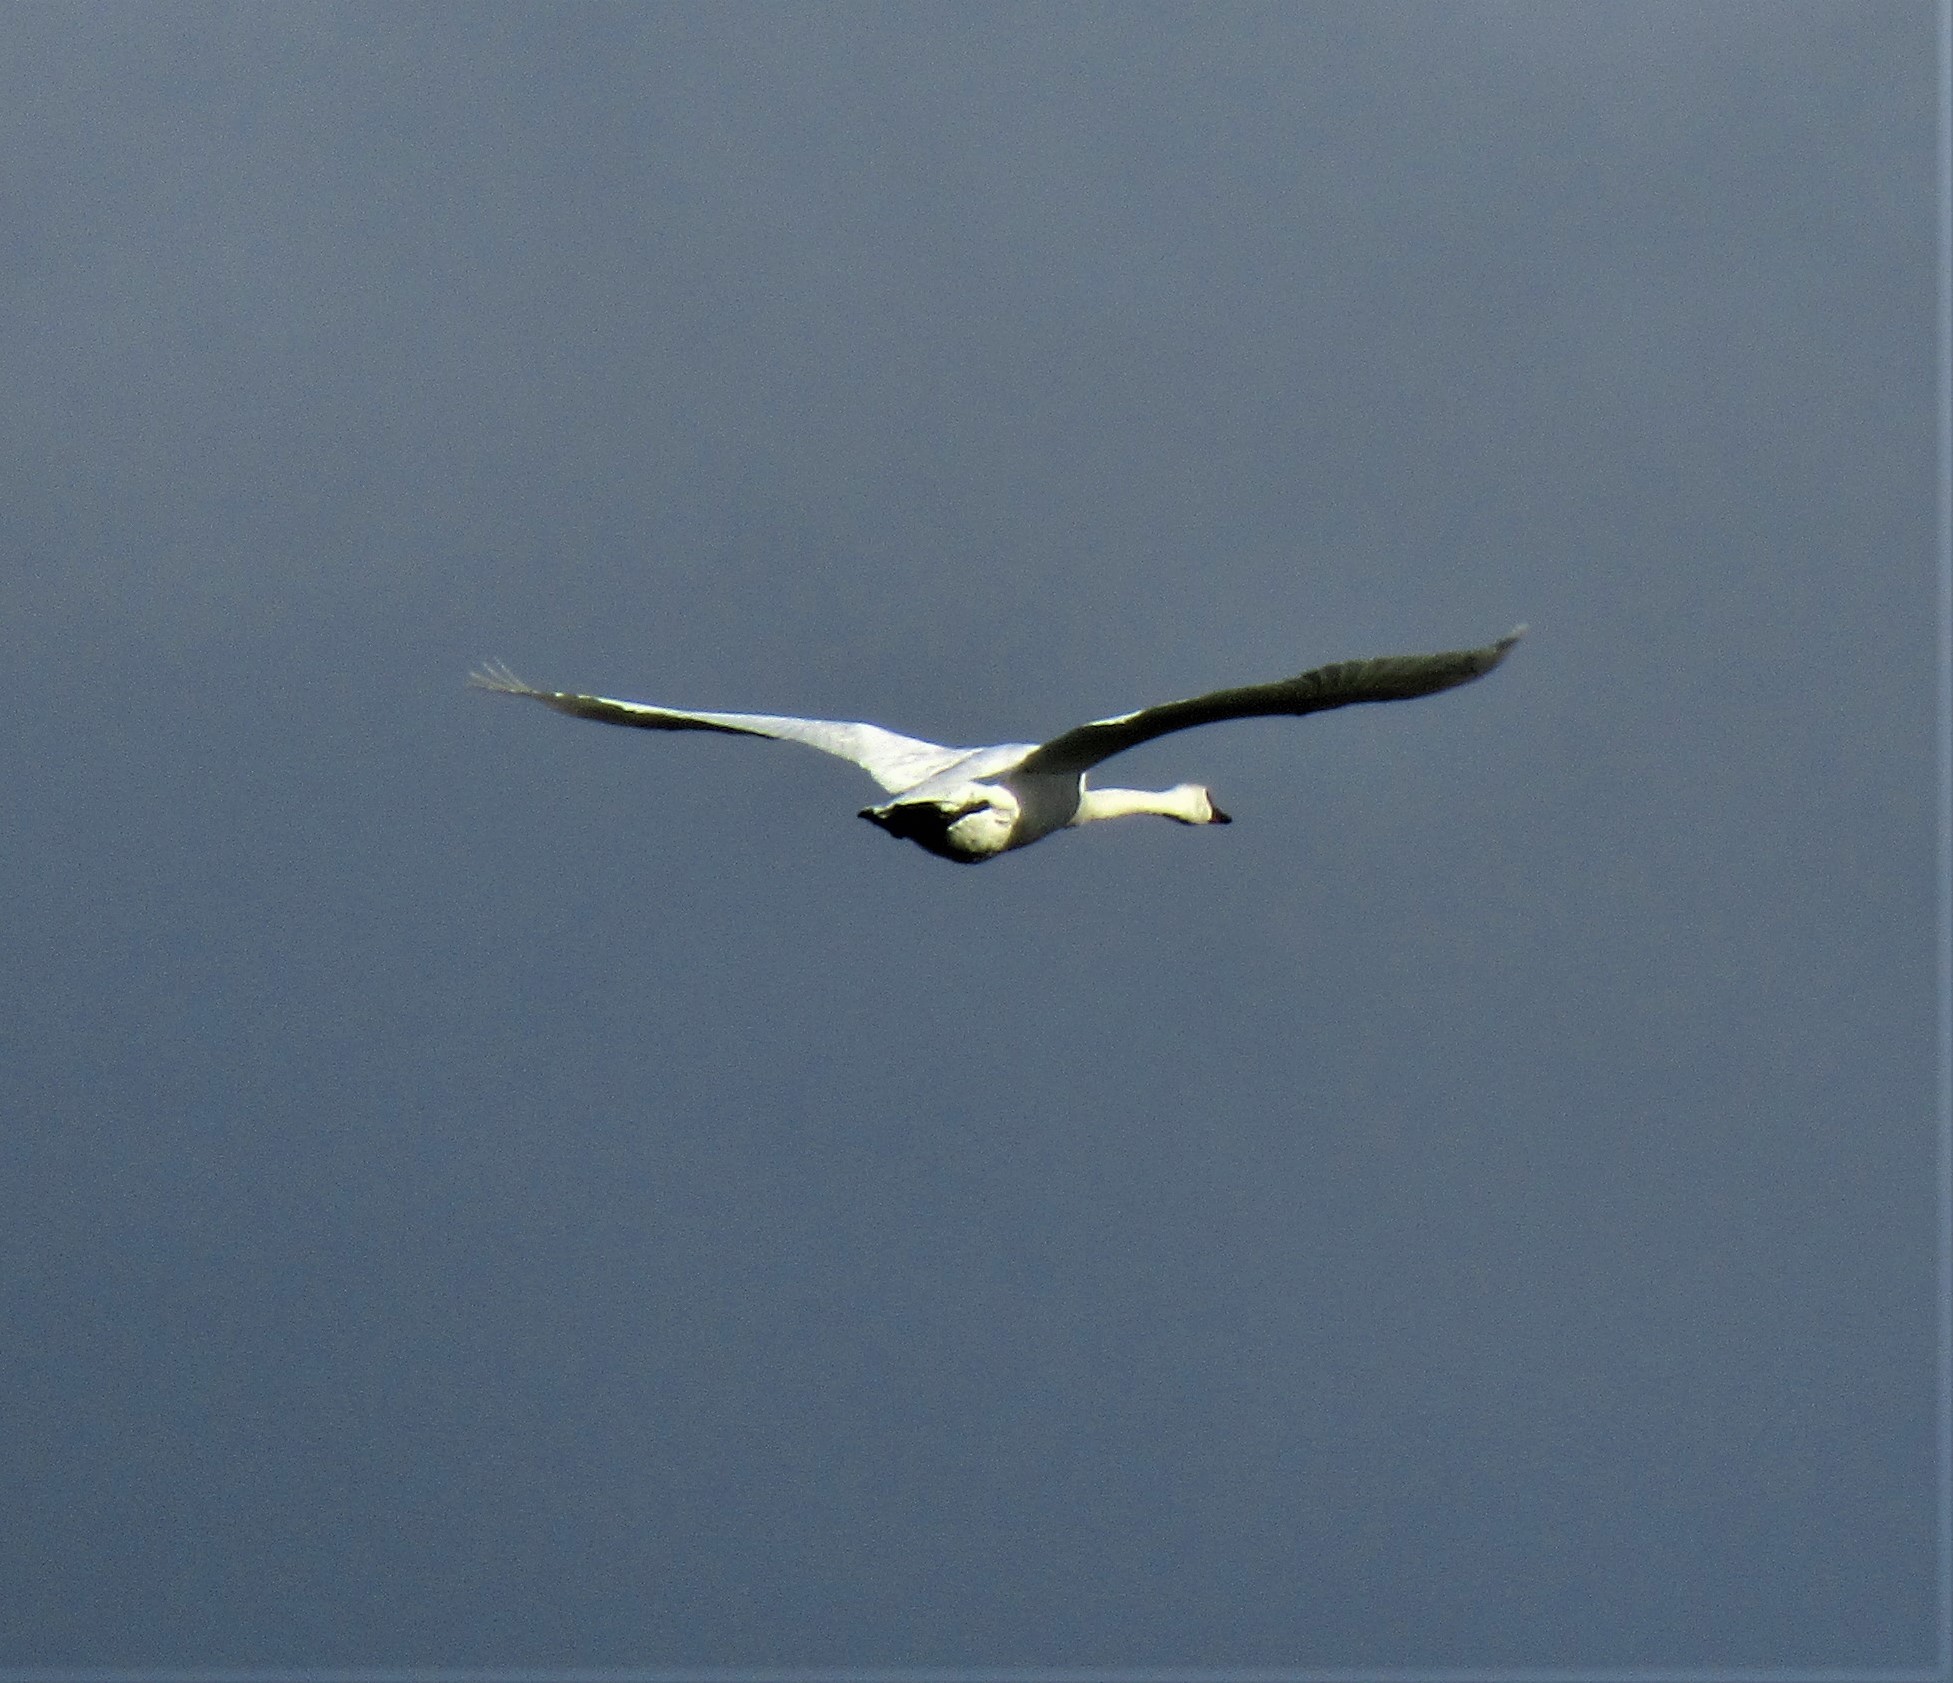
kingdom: Animalia
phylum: Chordata
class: Aves
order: Anseriformes
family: Anatidae
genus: Cygnus
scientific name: Cygnus buccinator
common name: Trumpeter swan
